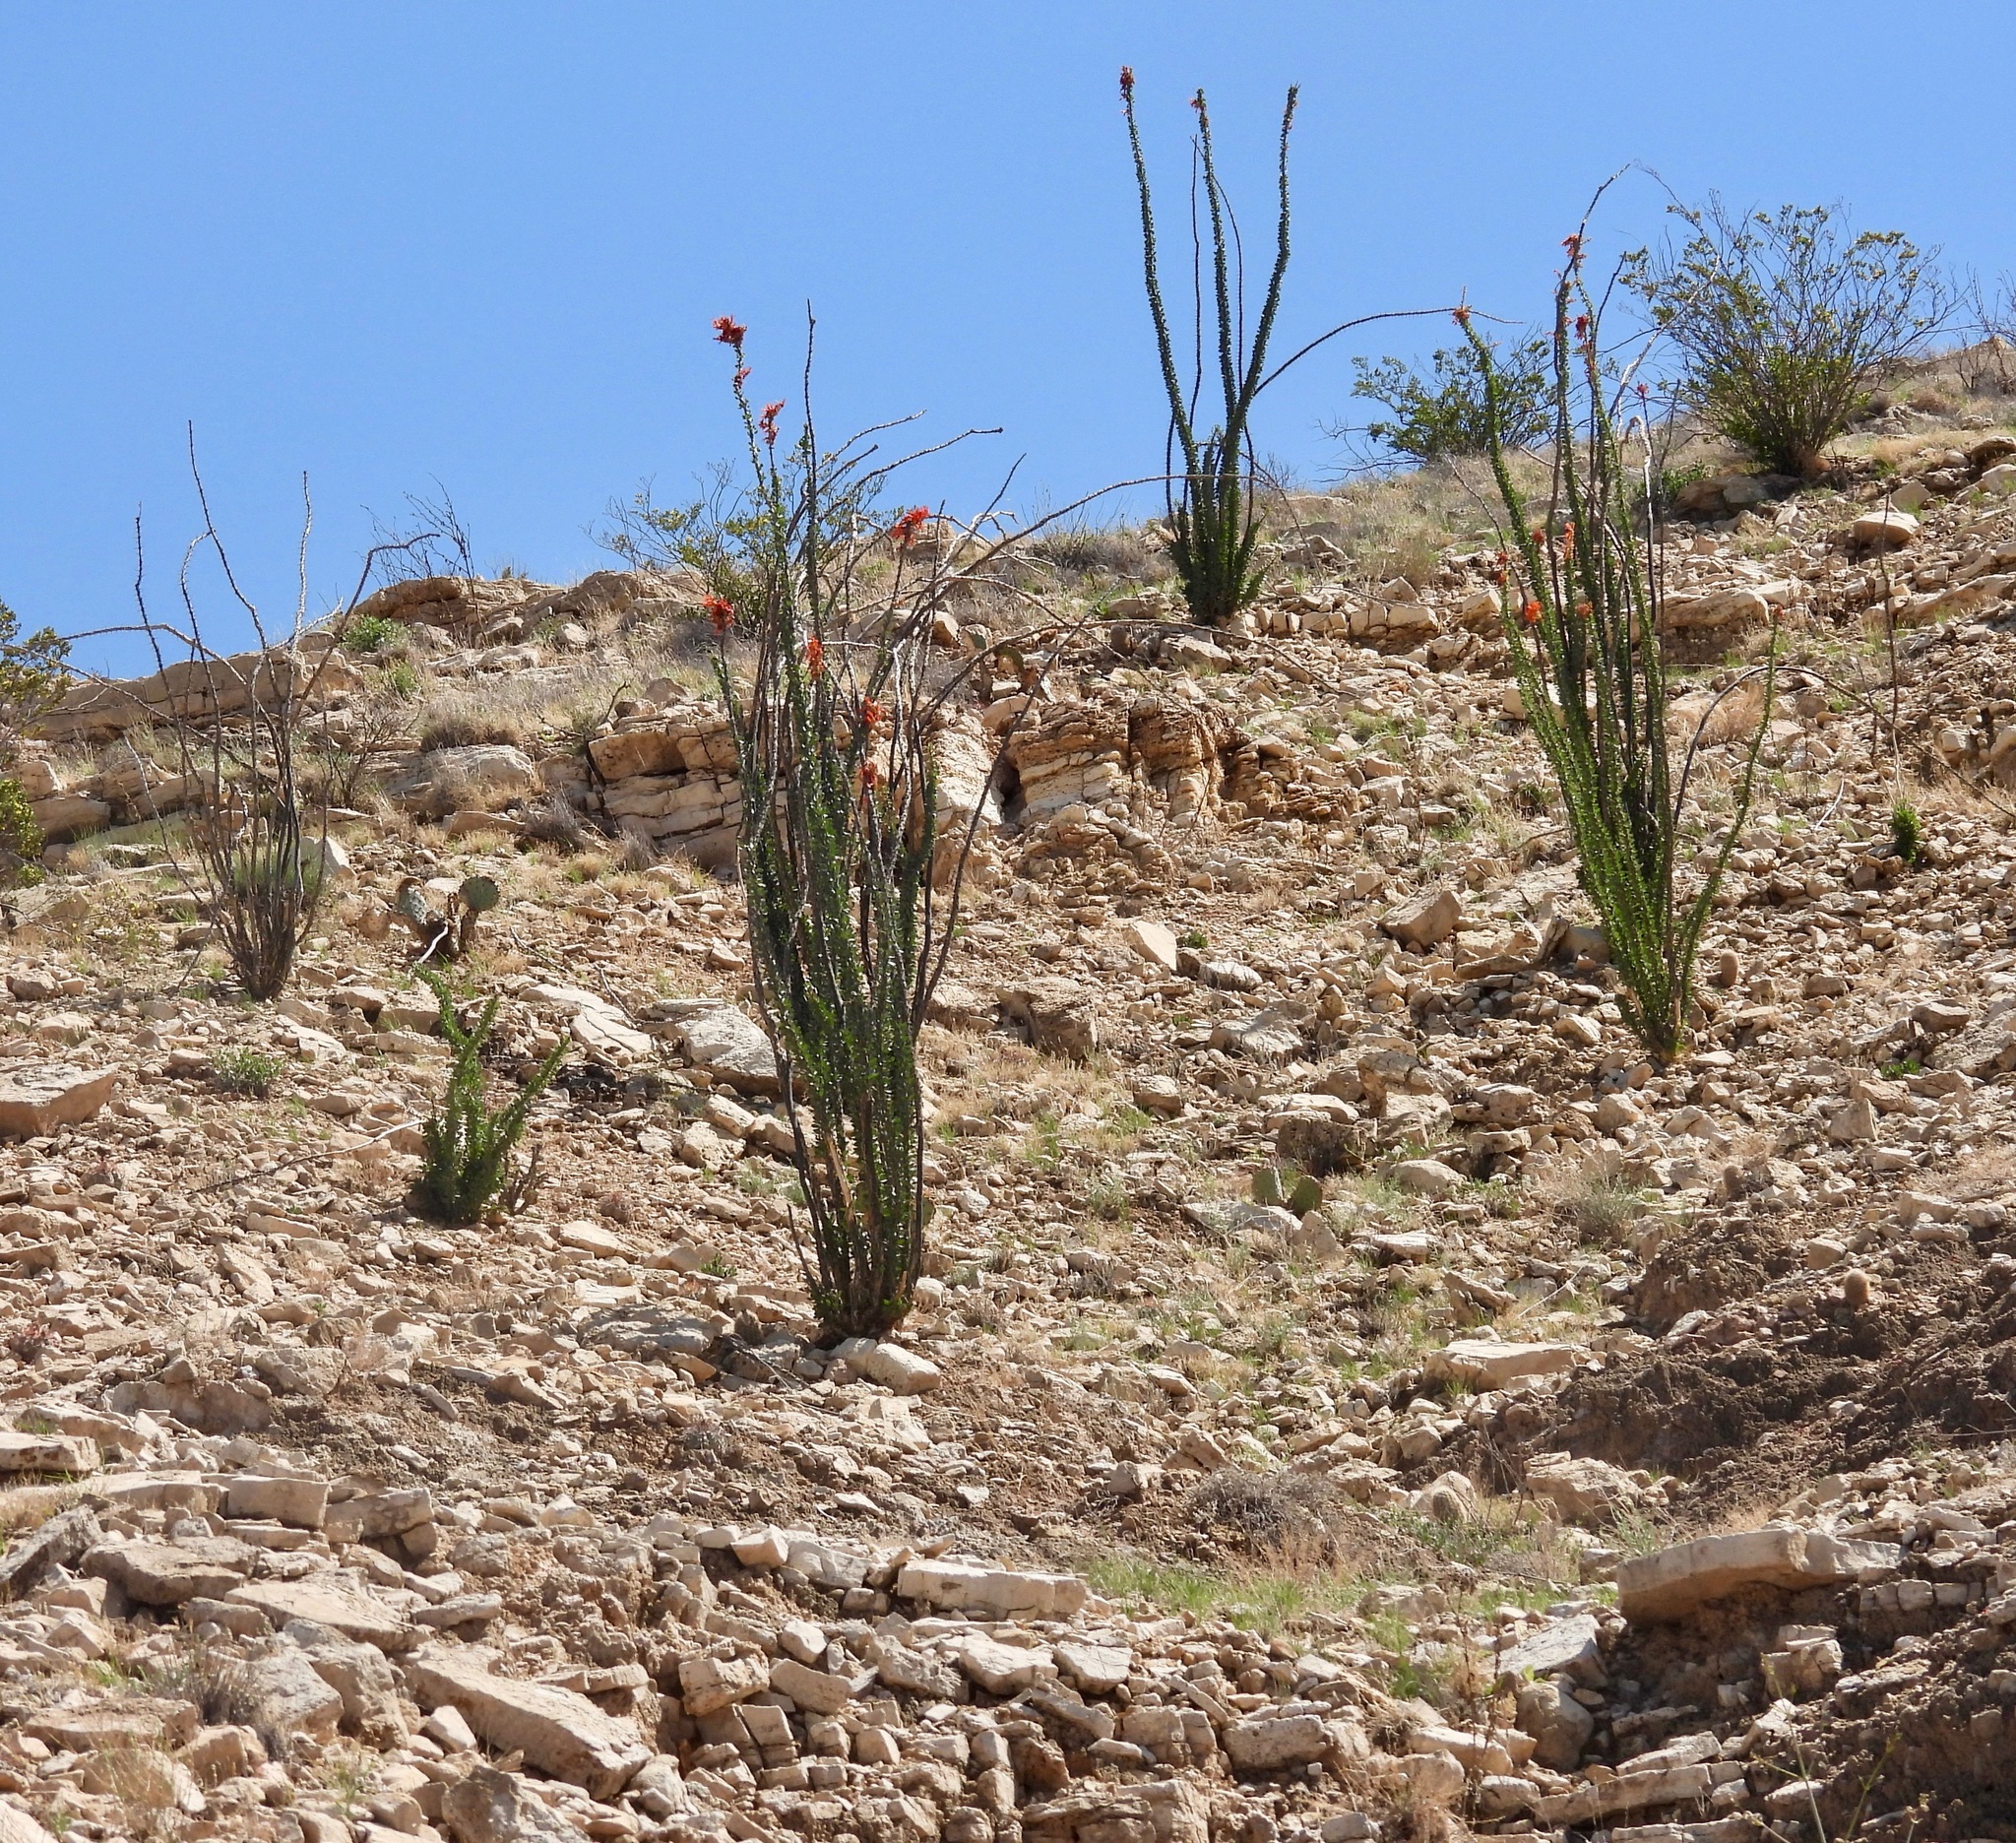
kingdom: Plantae
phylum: Tracheophyta
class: Magnoliopsida
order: Ericales
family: Fouquieriaceae
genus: Fouquieria
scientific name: Fouquieria splendens
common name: Vine-cactus
